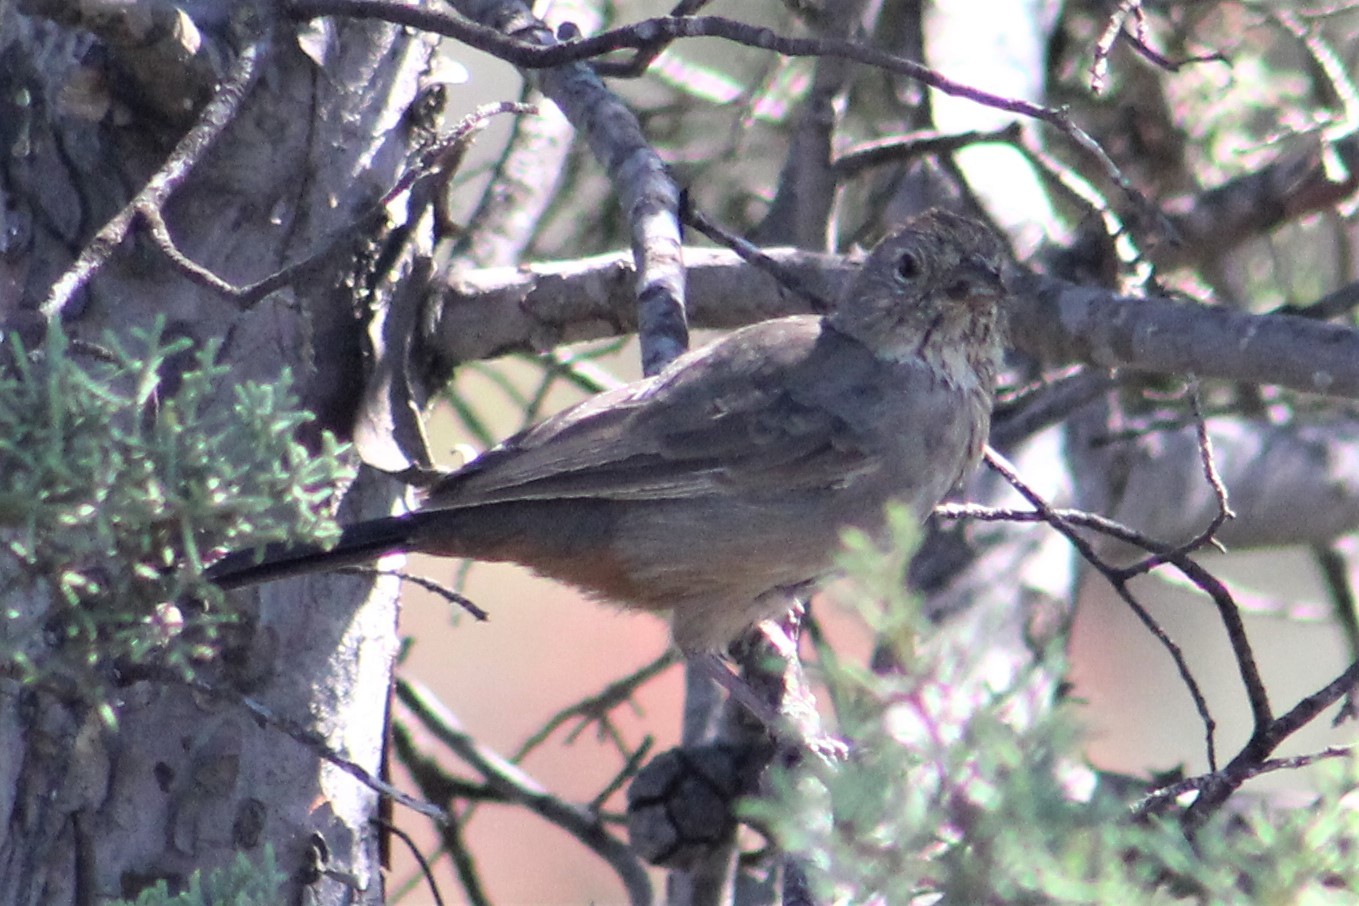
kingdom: Animalia
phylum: Chordata
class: Aves
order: Passeriformes
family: Passerellidae
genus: Melozone
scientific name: Melozone fusca
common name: Canyon towhee
